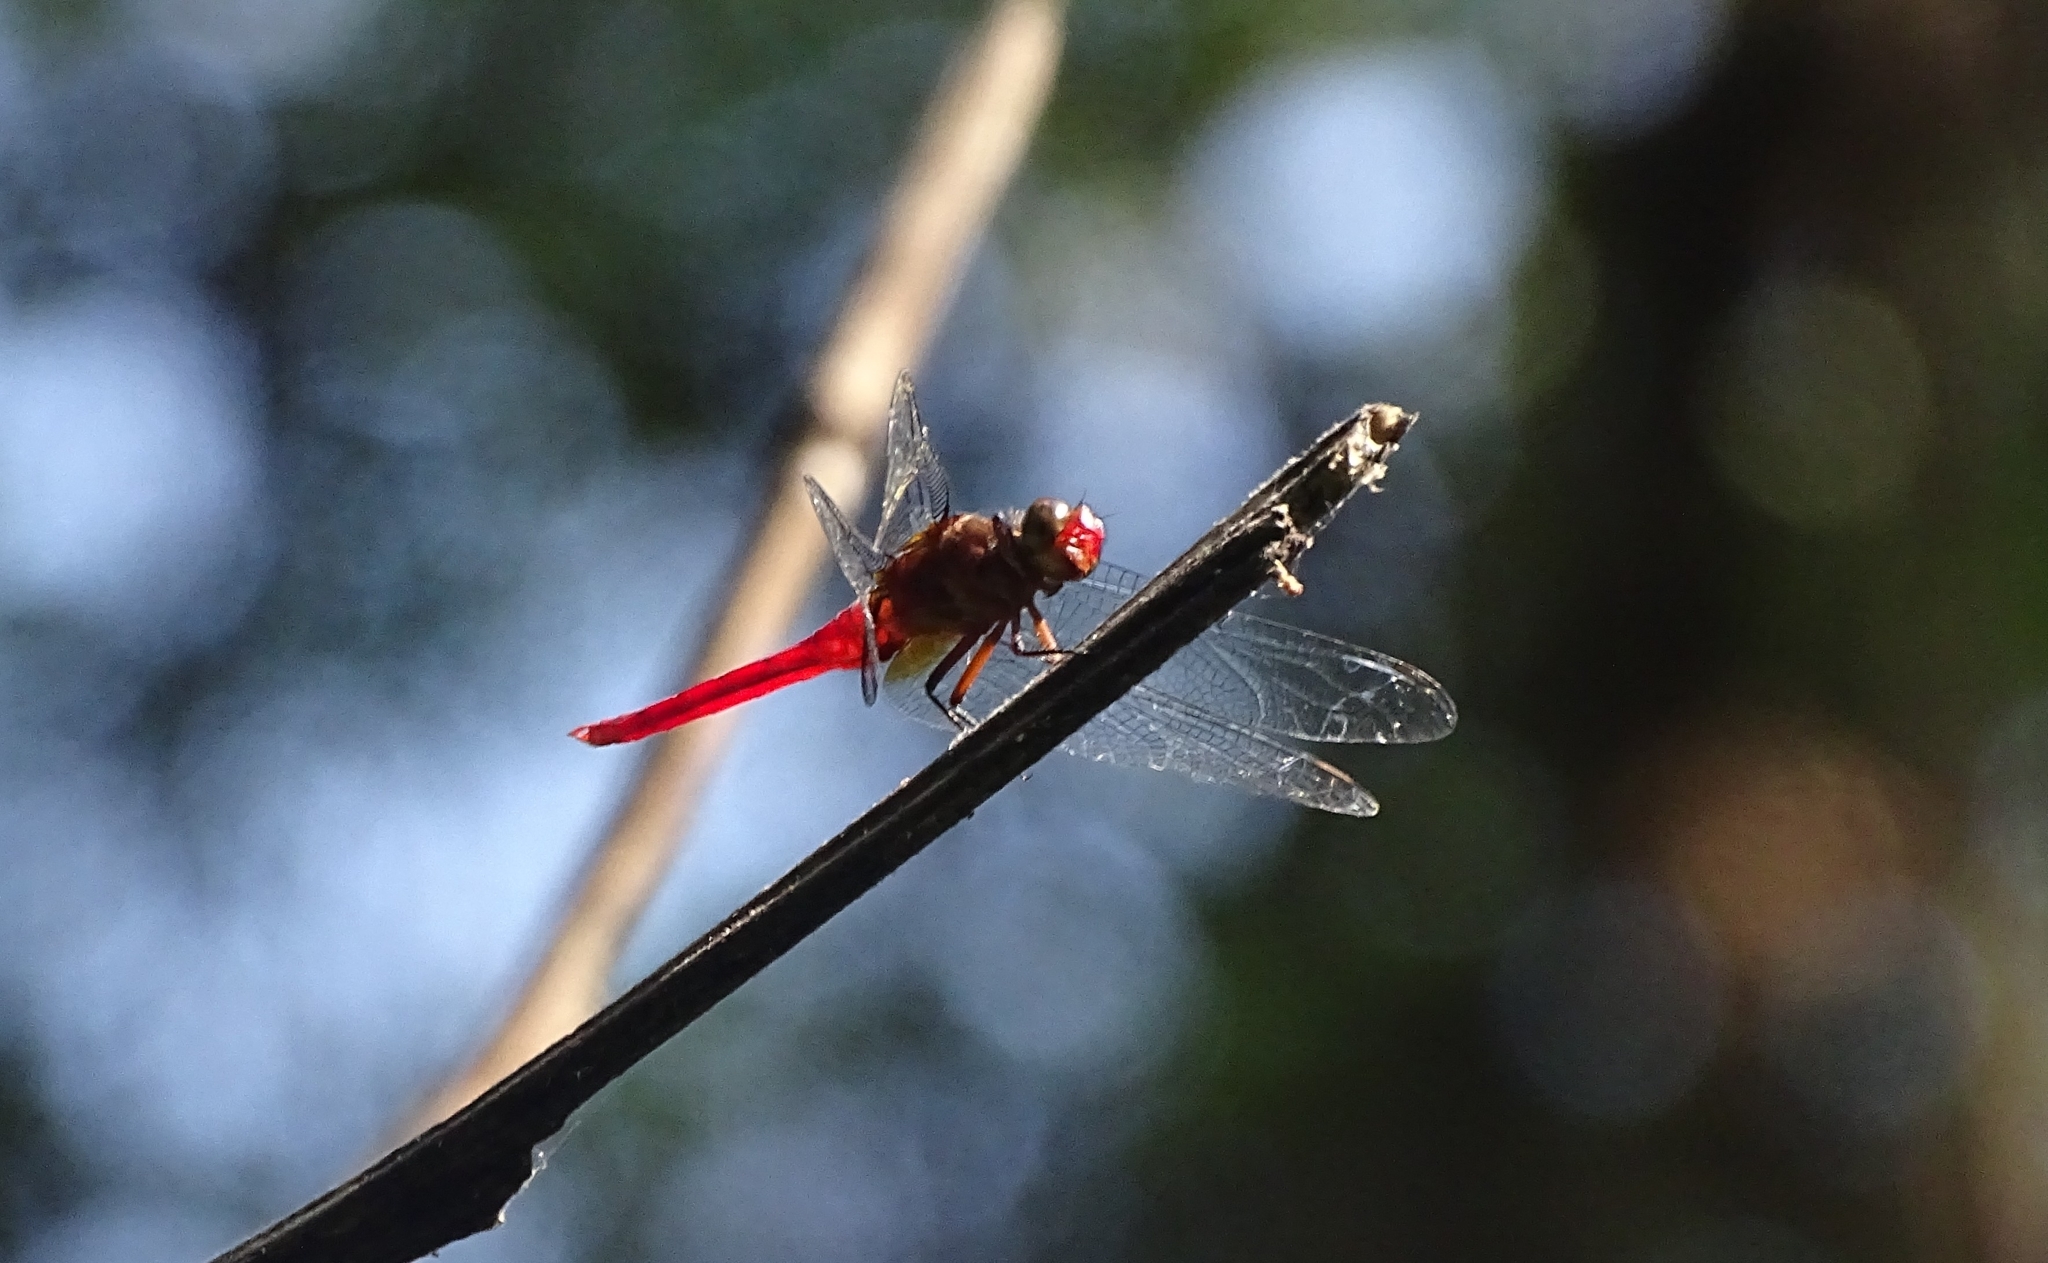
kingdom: Animalia
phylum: Arthropoda
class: Insecta
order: Odonata
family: Libellulidae
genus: Orthetrum
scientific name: Orthetrum chrysis
